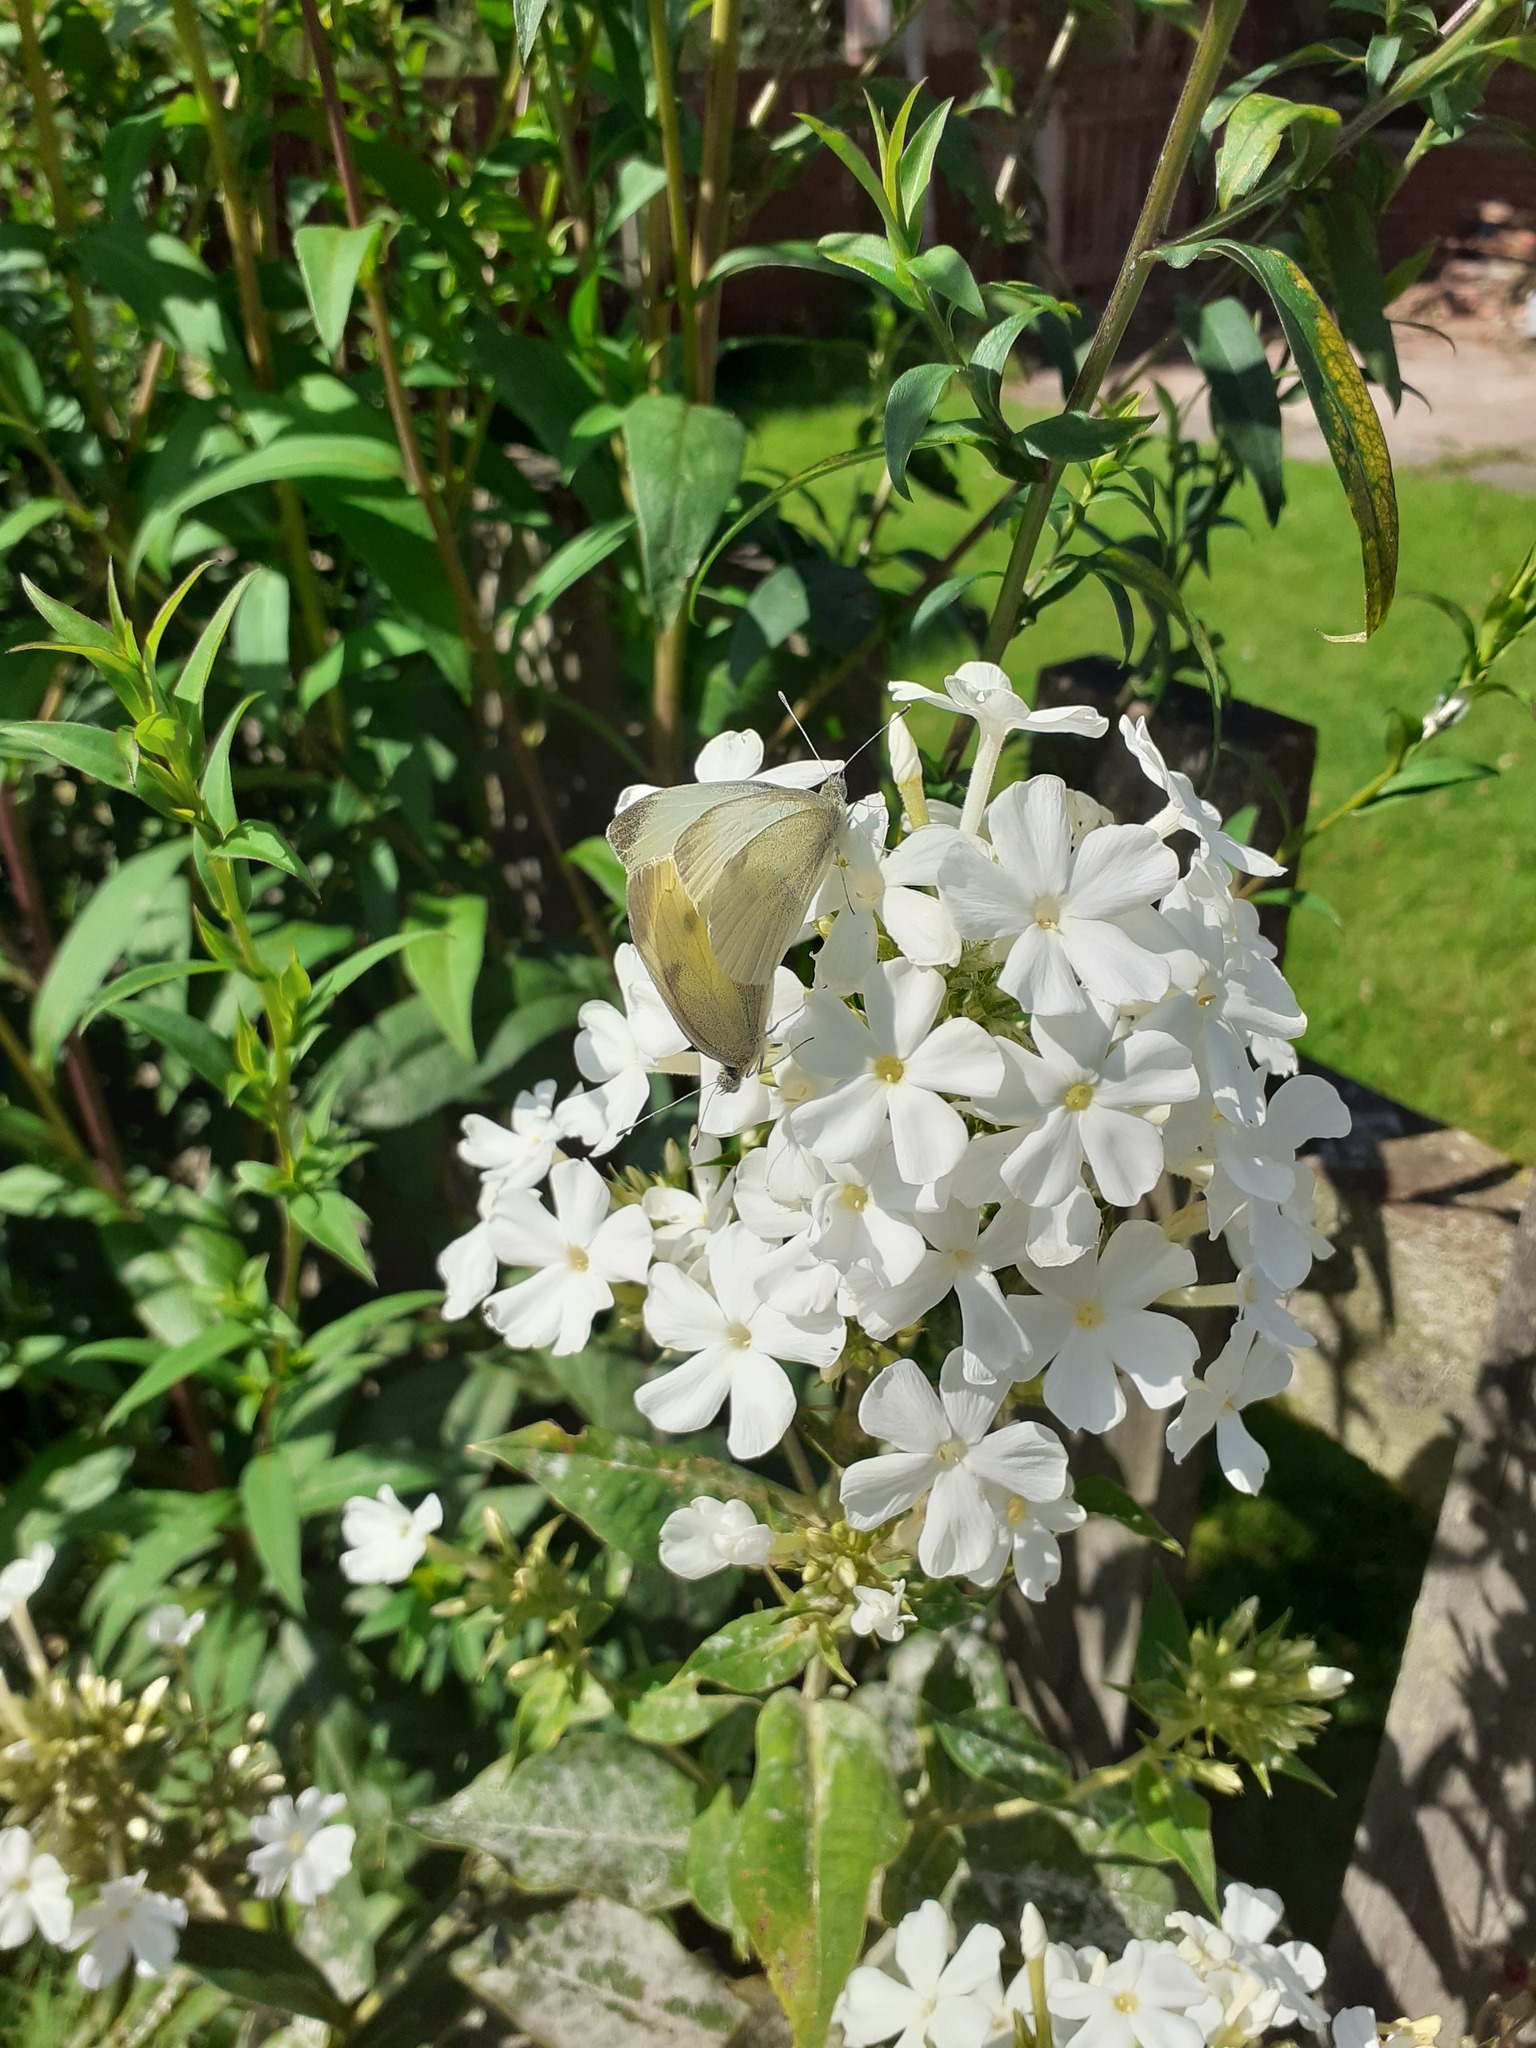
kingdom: Animalia
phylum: Arthropoda
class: Insecta
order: Lepidoptera
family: Pieridae
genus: Pieris
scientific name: Pieris rapae
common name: Small white
